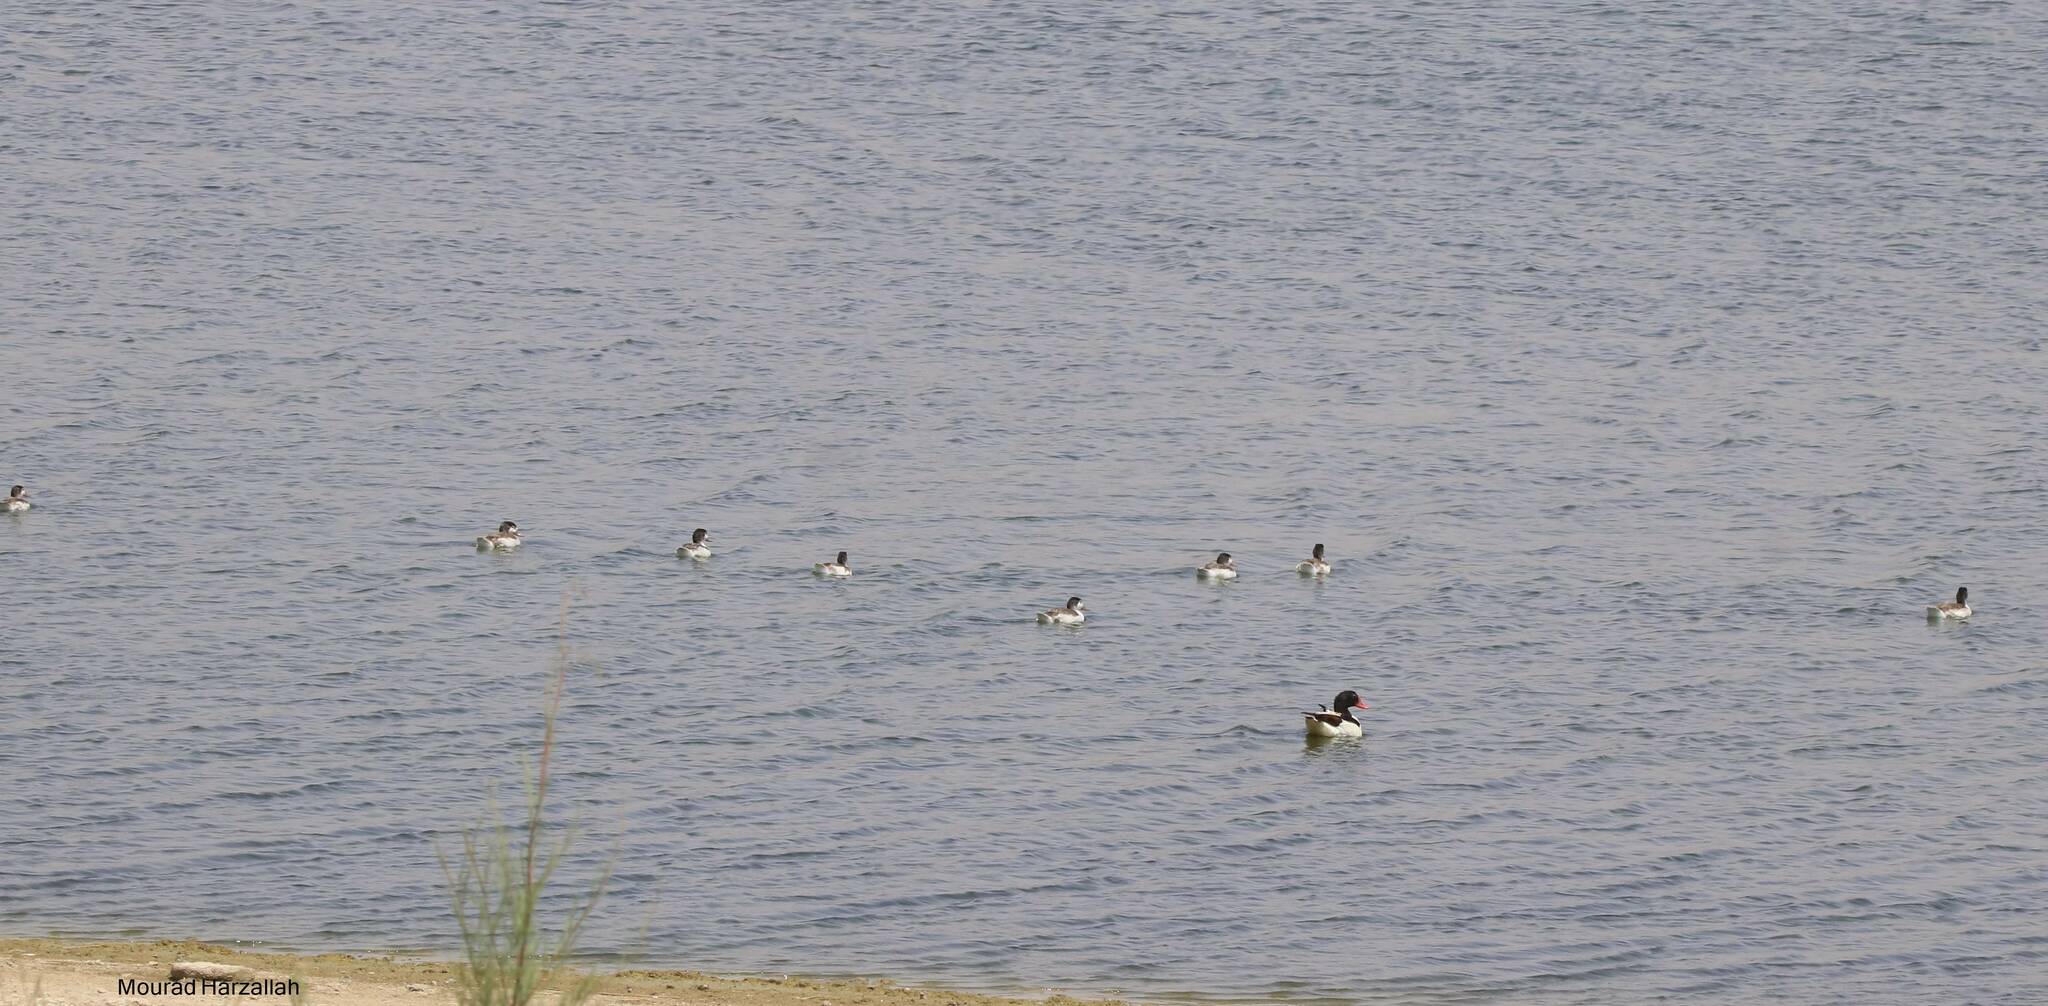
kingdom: Animalia
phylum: Chordata
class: Aves
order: Anseriformes
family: Anatidae
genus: Tadorna
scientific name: Tadorna tadorna
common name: Common shelduck
